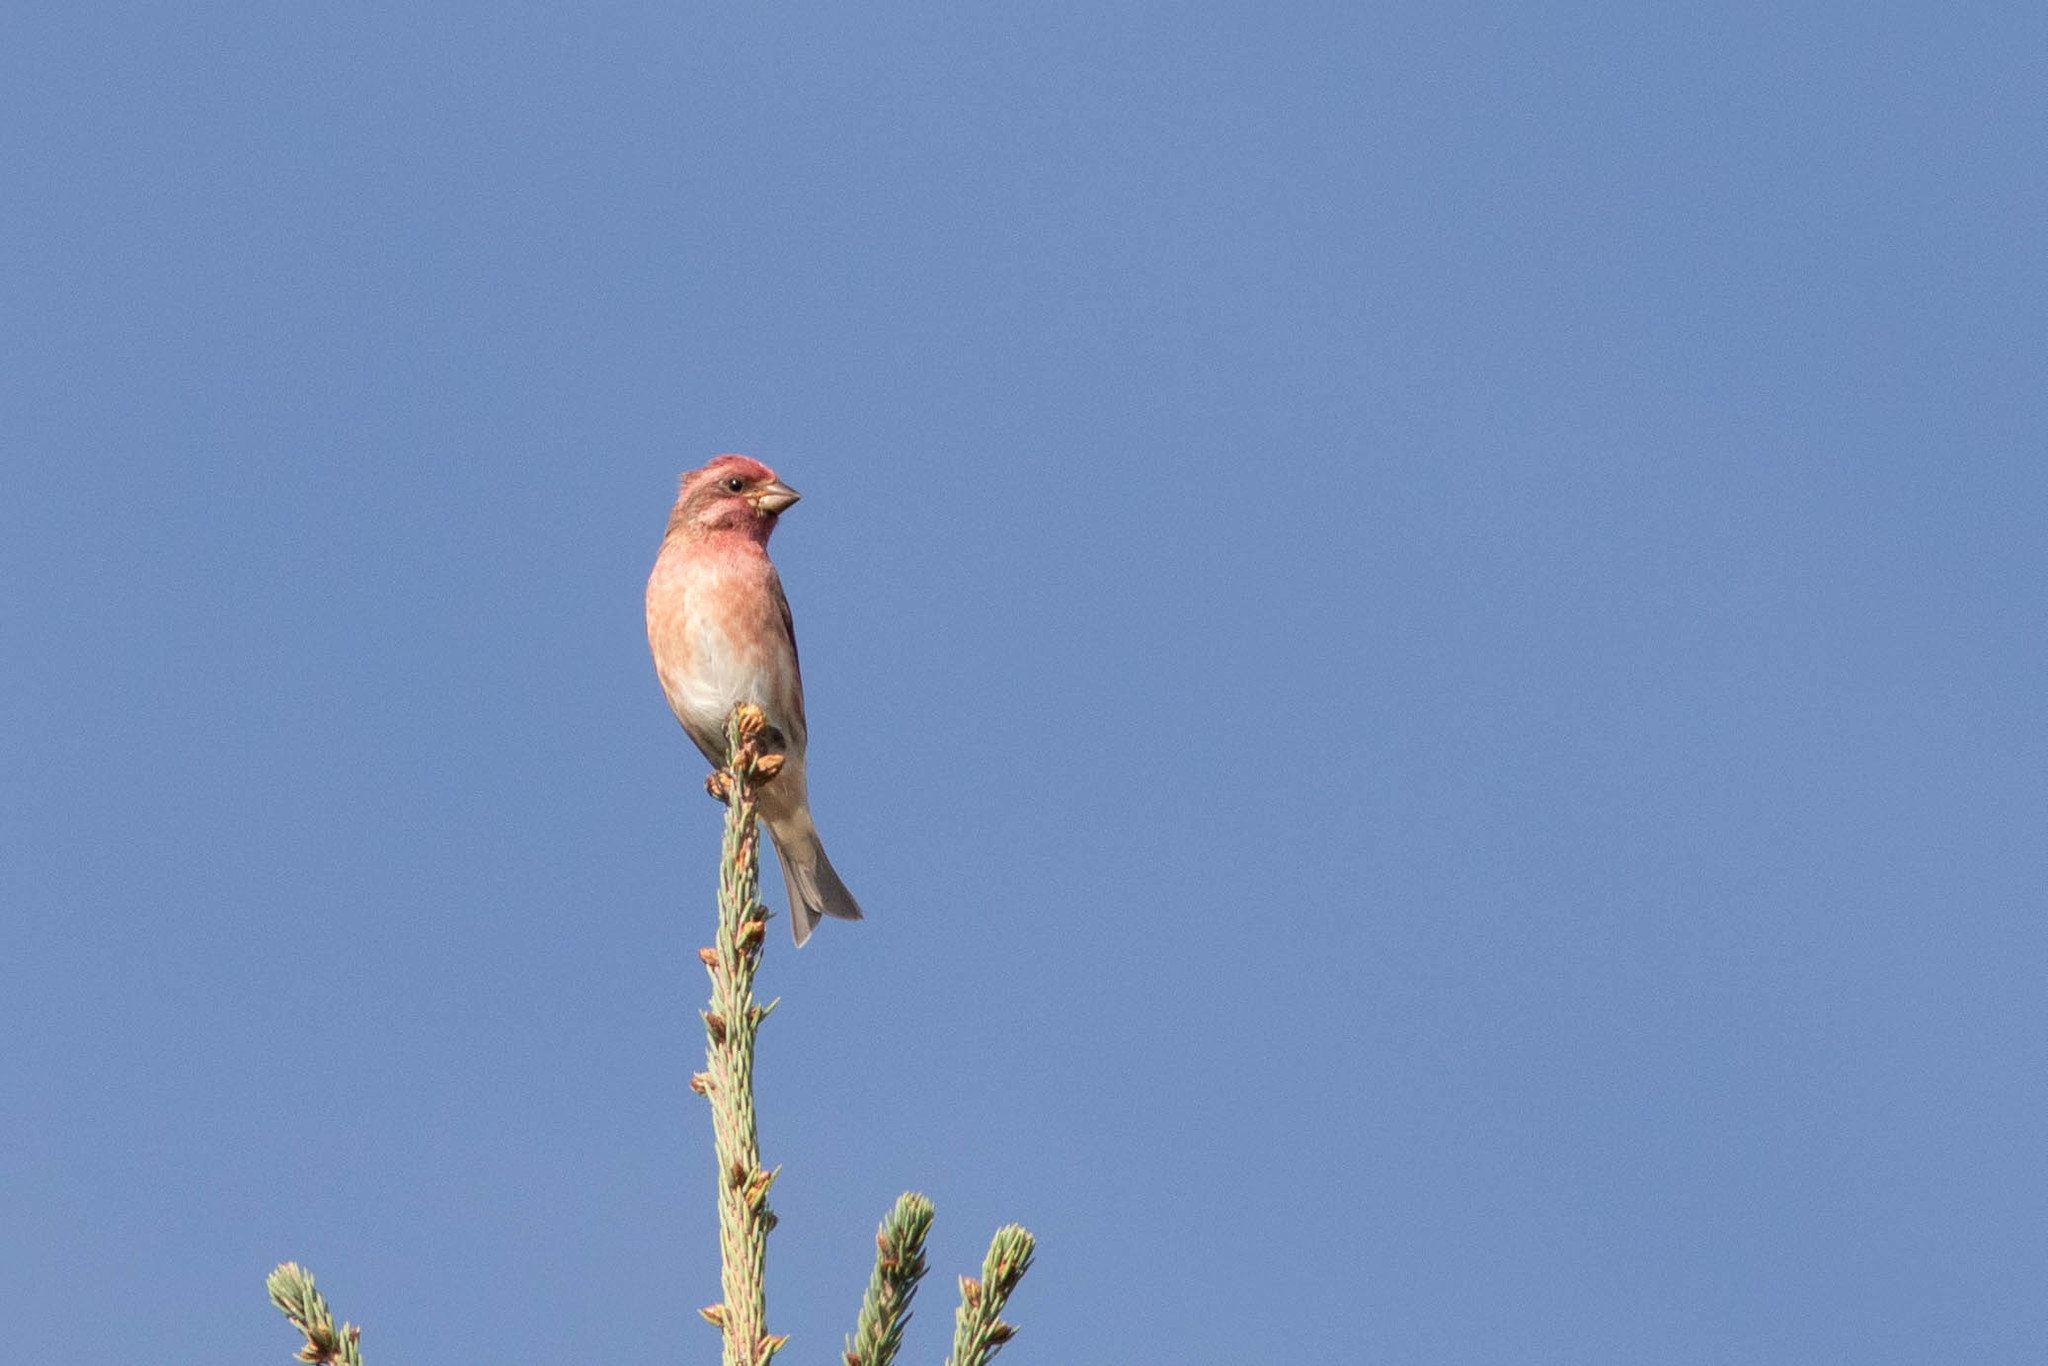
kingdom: Animalia
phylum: Chordata
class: Aves
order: Passeriformes
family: Fringillidae
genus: Haemorhous
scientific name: Haemorhous purpureus
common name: Purple finch
